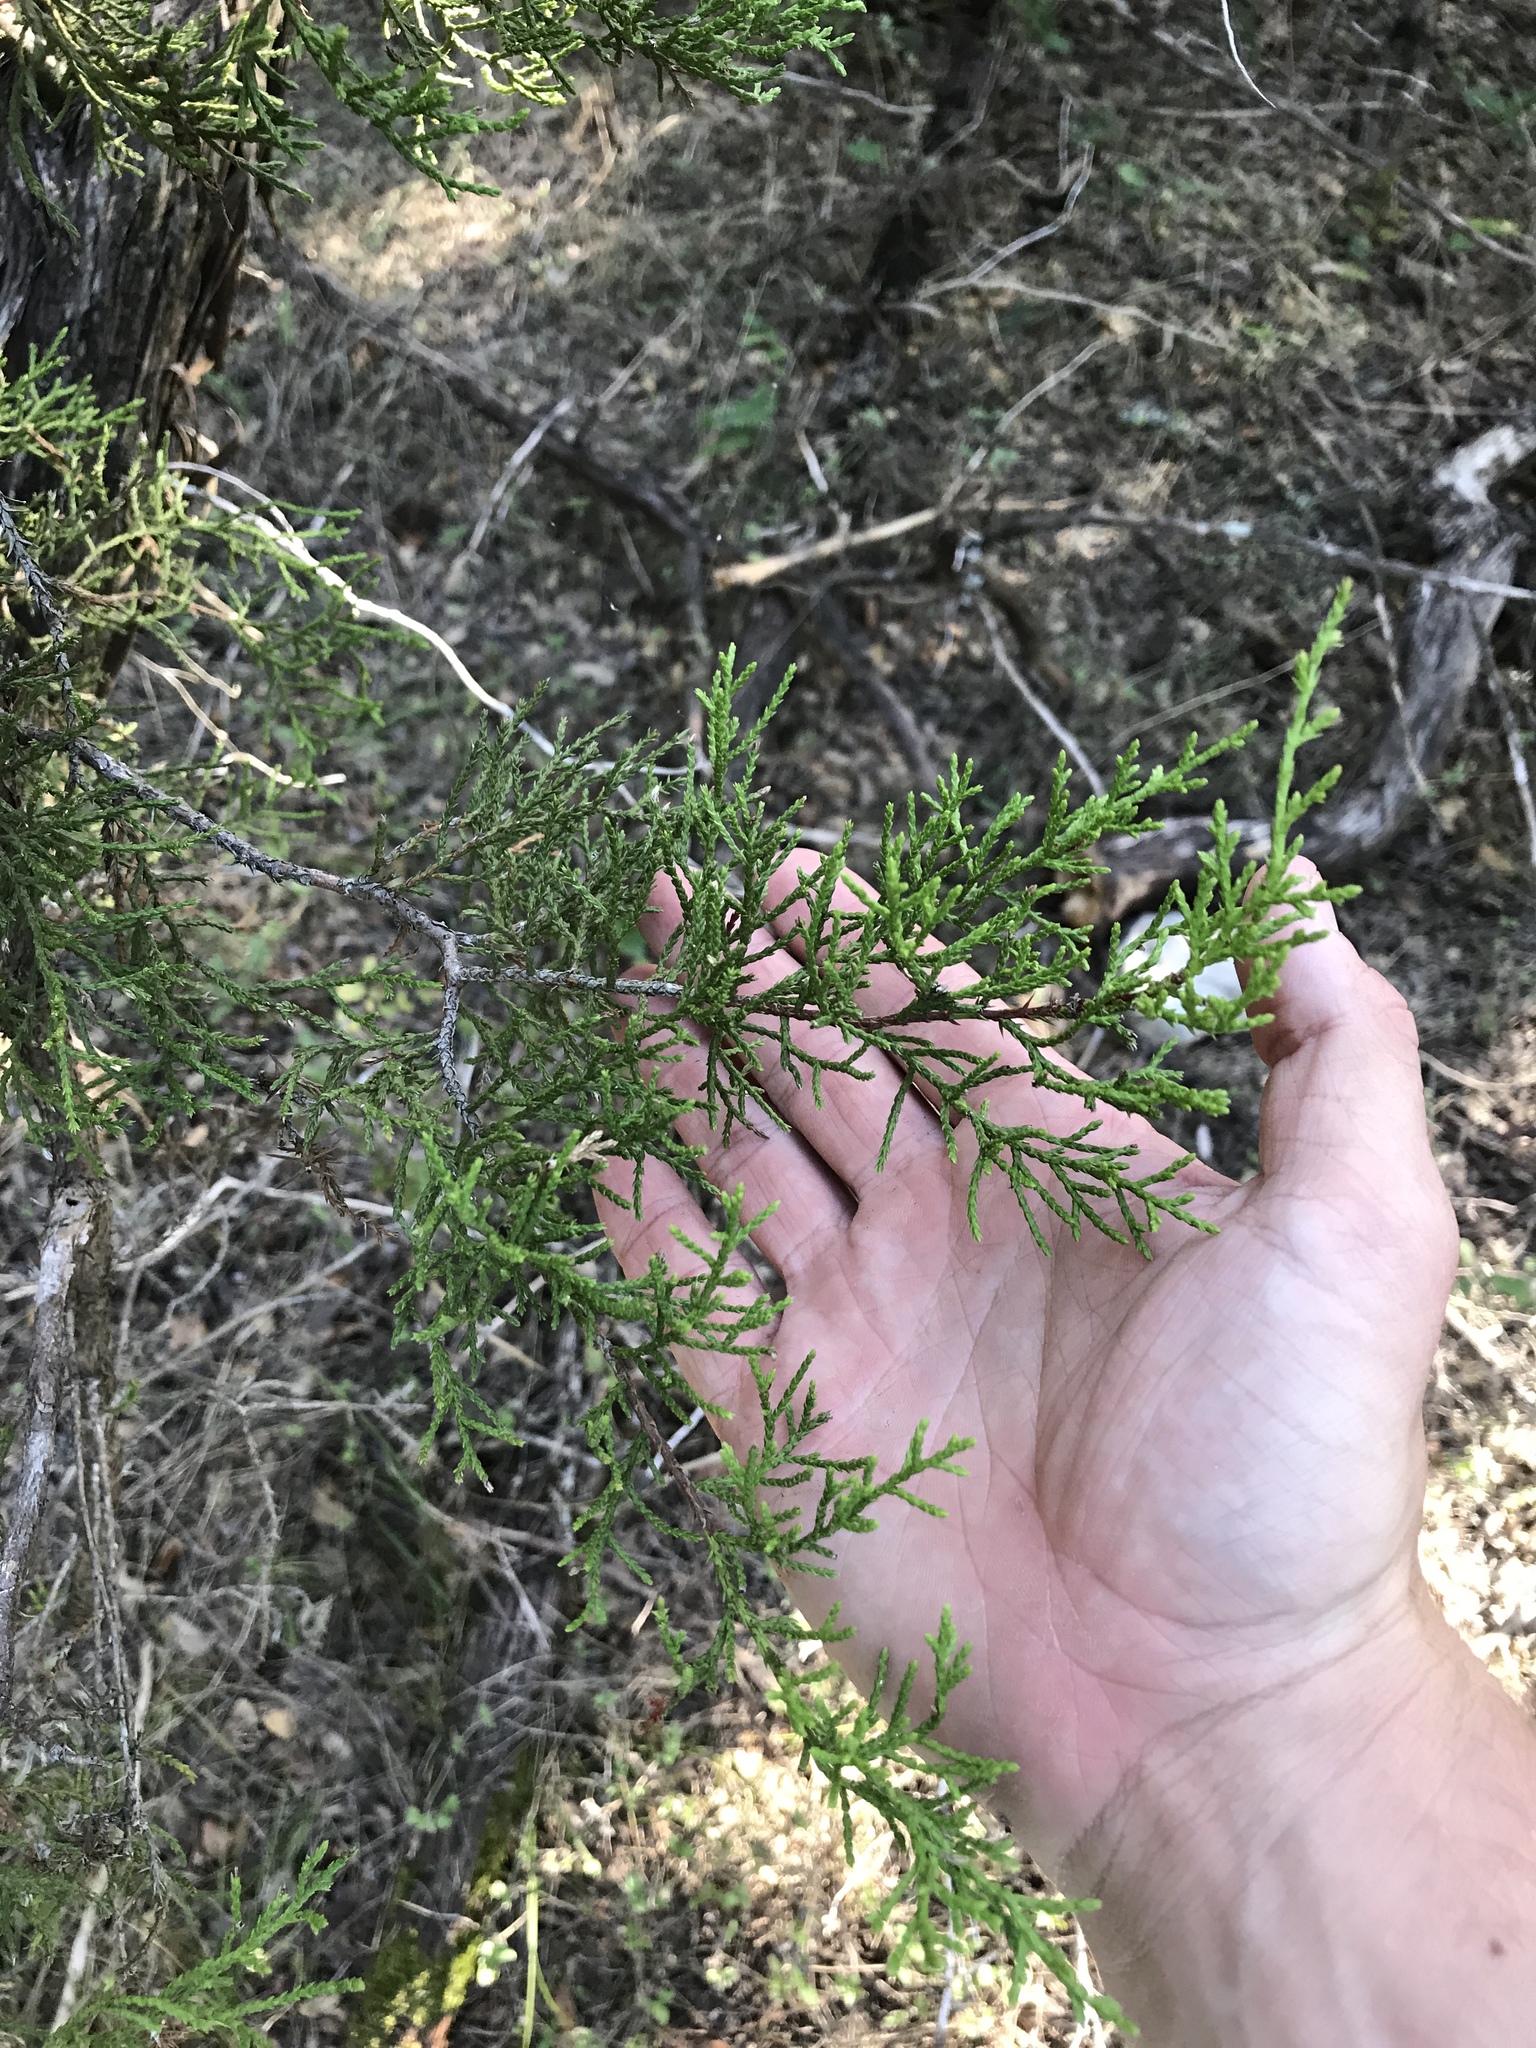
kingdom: Plantae
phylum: Tracheophyta
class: Pinopsida
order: Pinales
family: Cupressaceae
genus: Juniperus
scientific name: Juniperus ashei
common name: Mexican juniper
